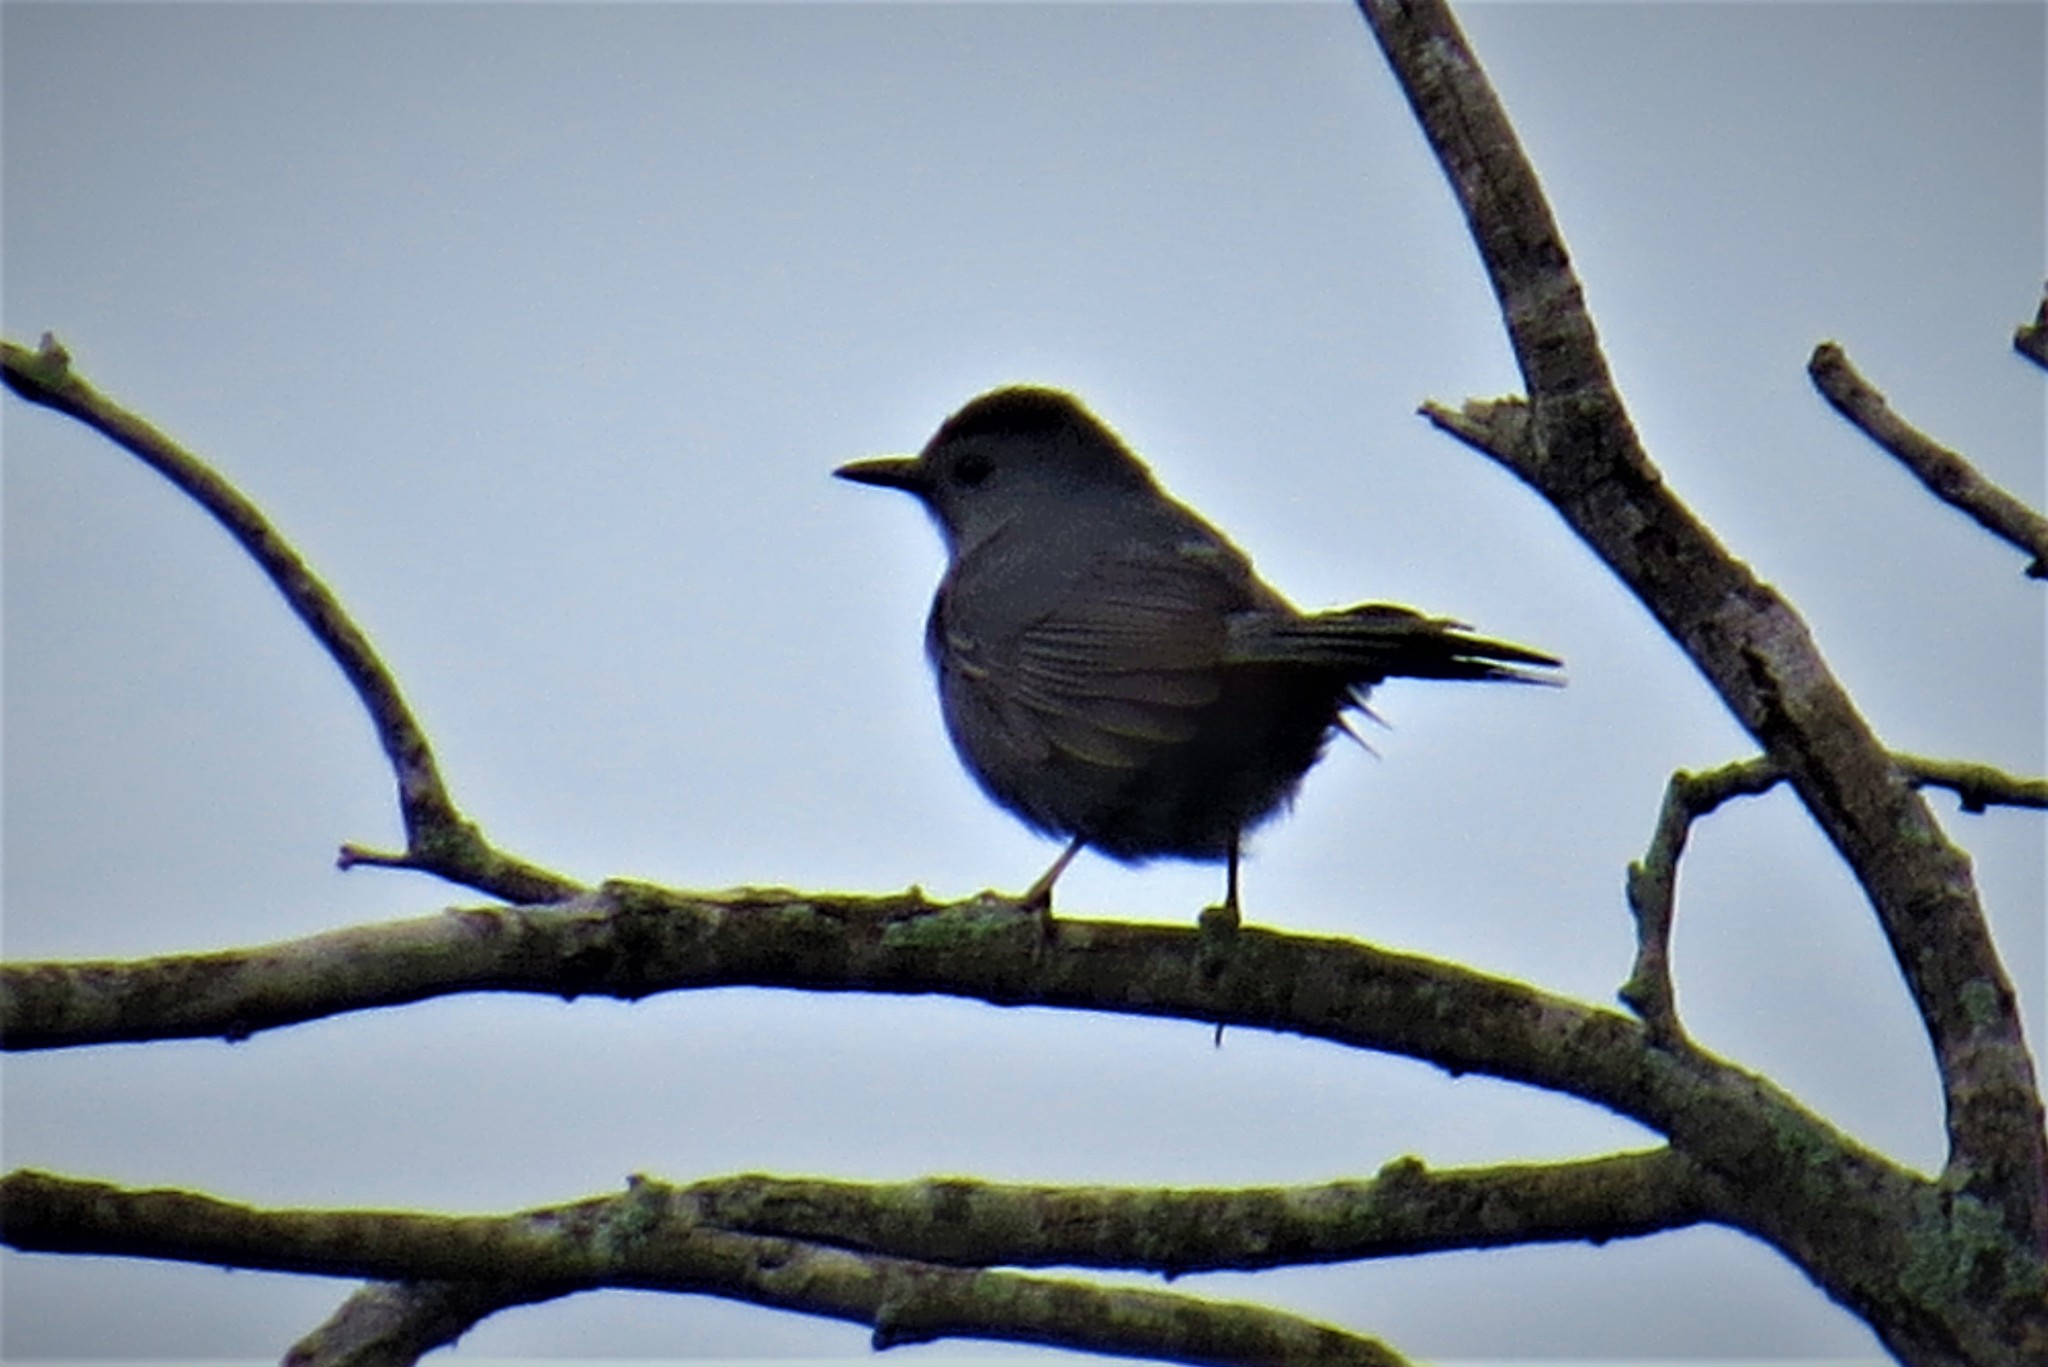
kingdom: Animalia
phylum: Chordata
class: Aves
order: Passeriformes
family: Mimidae
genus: Dumetella
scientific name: Dumetella carolinensis
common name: Gray catbird
